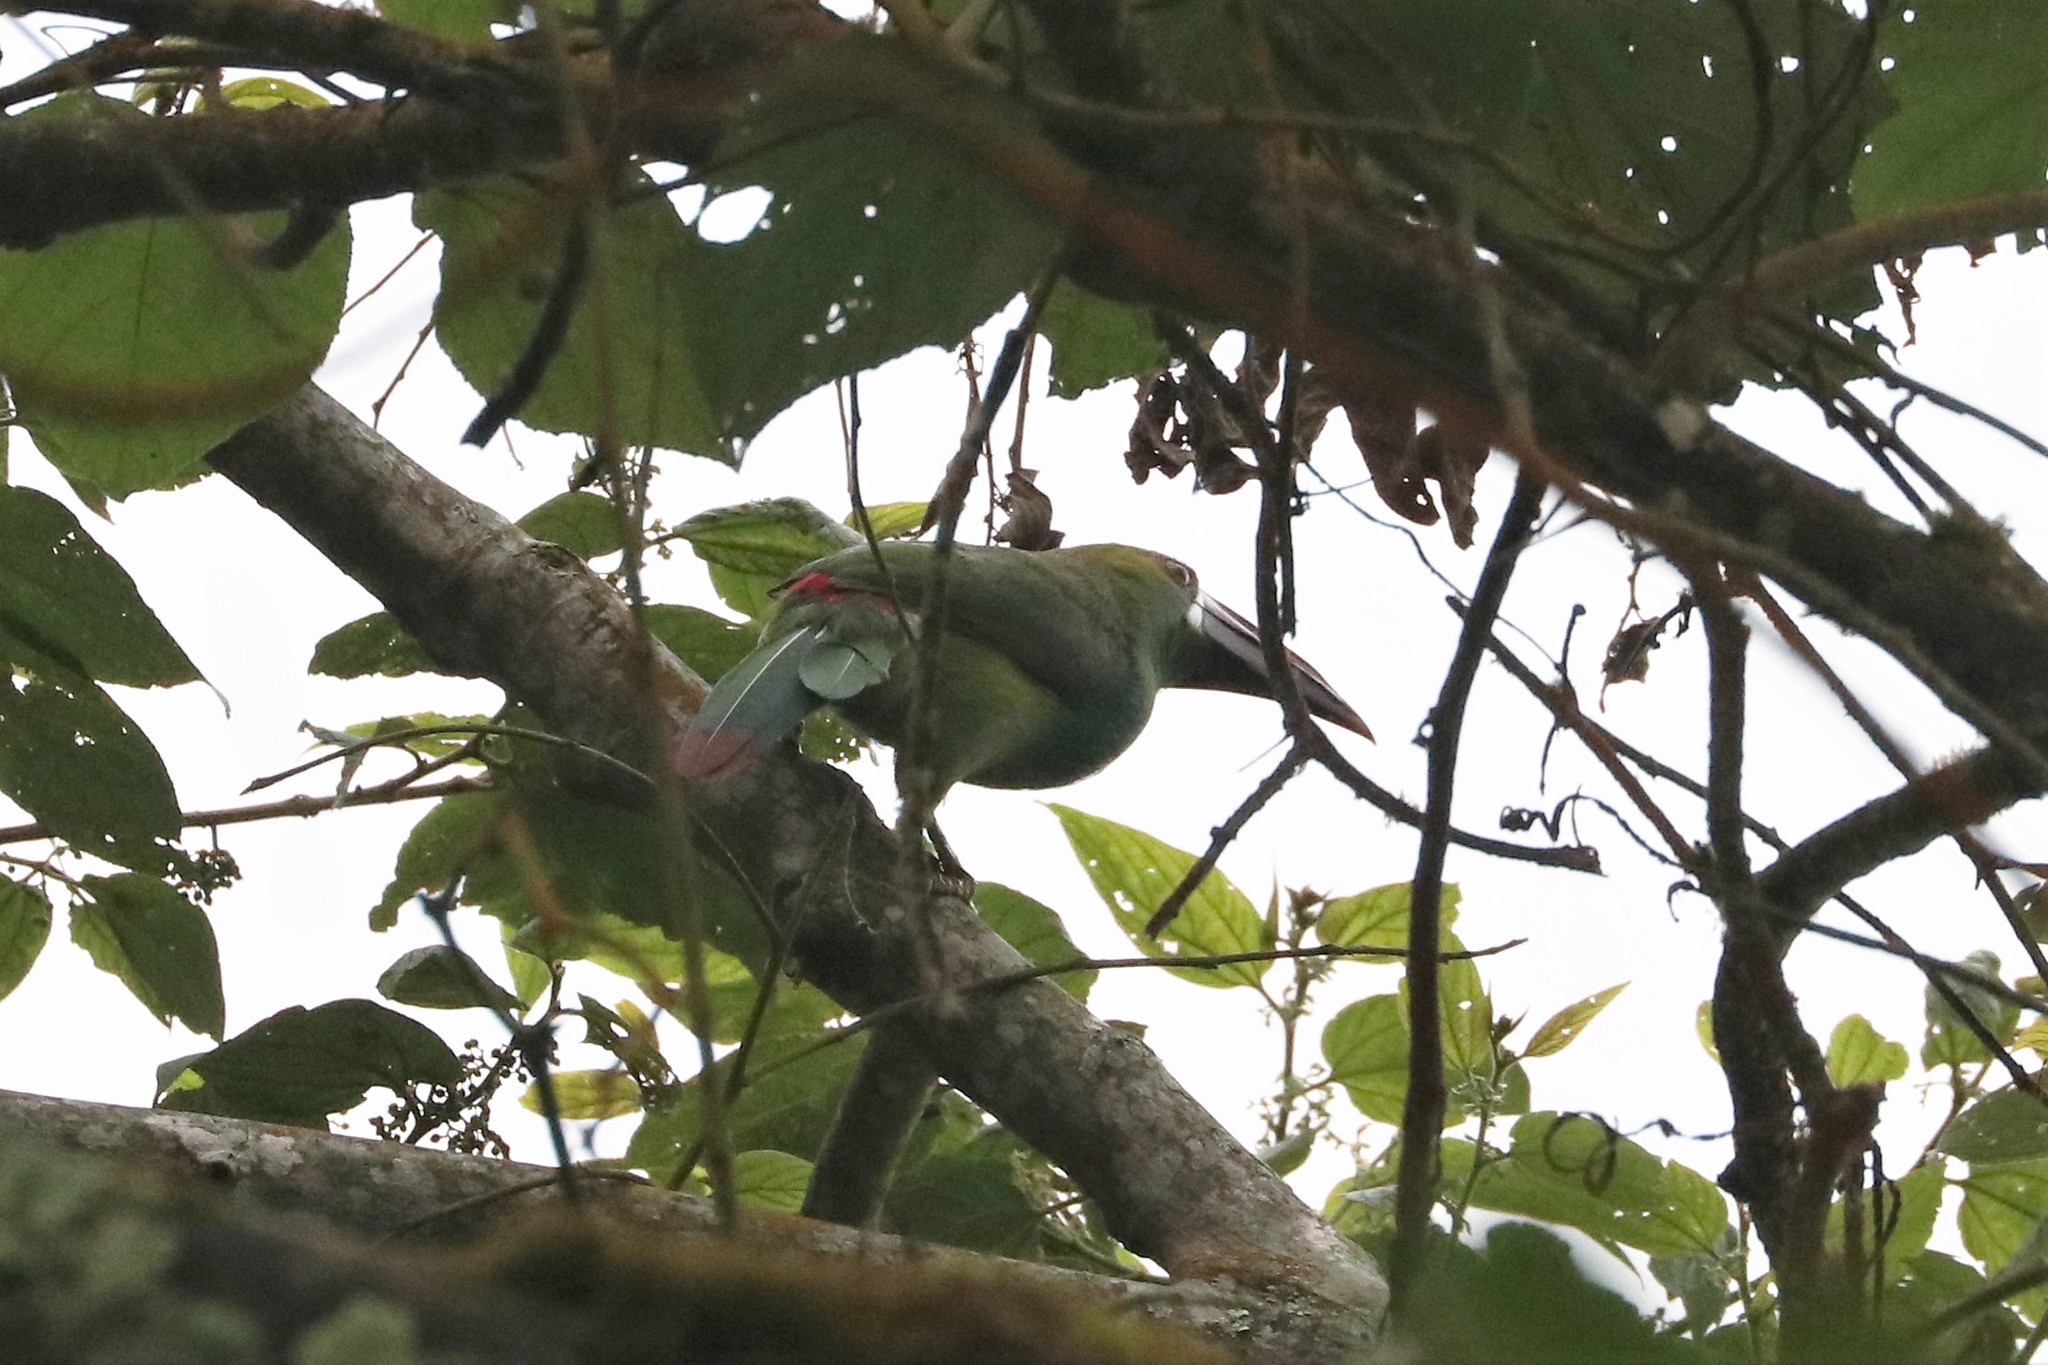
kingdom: Animalia
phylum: Chordata
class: Aves
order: Piciformes
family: Ramphastidae
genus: Aulacorhynchus
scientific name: Aulacorhynchus haematopygus
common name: Crimson-rumped toucanet
